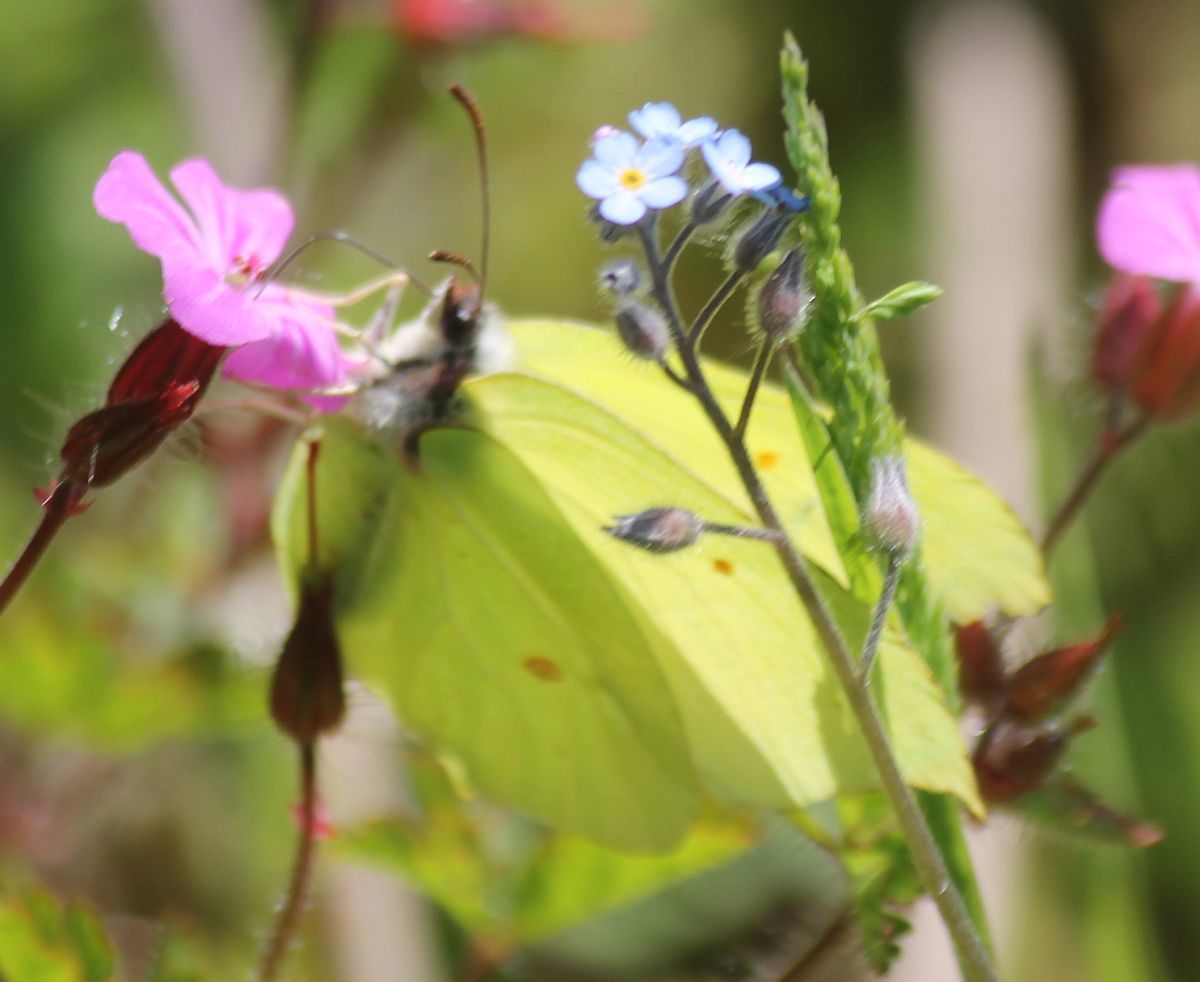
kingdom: Animalia
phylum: Arthropoda
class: Insecta
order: Lepidoptera
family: Pieridae
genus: Gonepteryx
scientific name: Gonepteryx rhamni
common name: Brimstone
